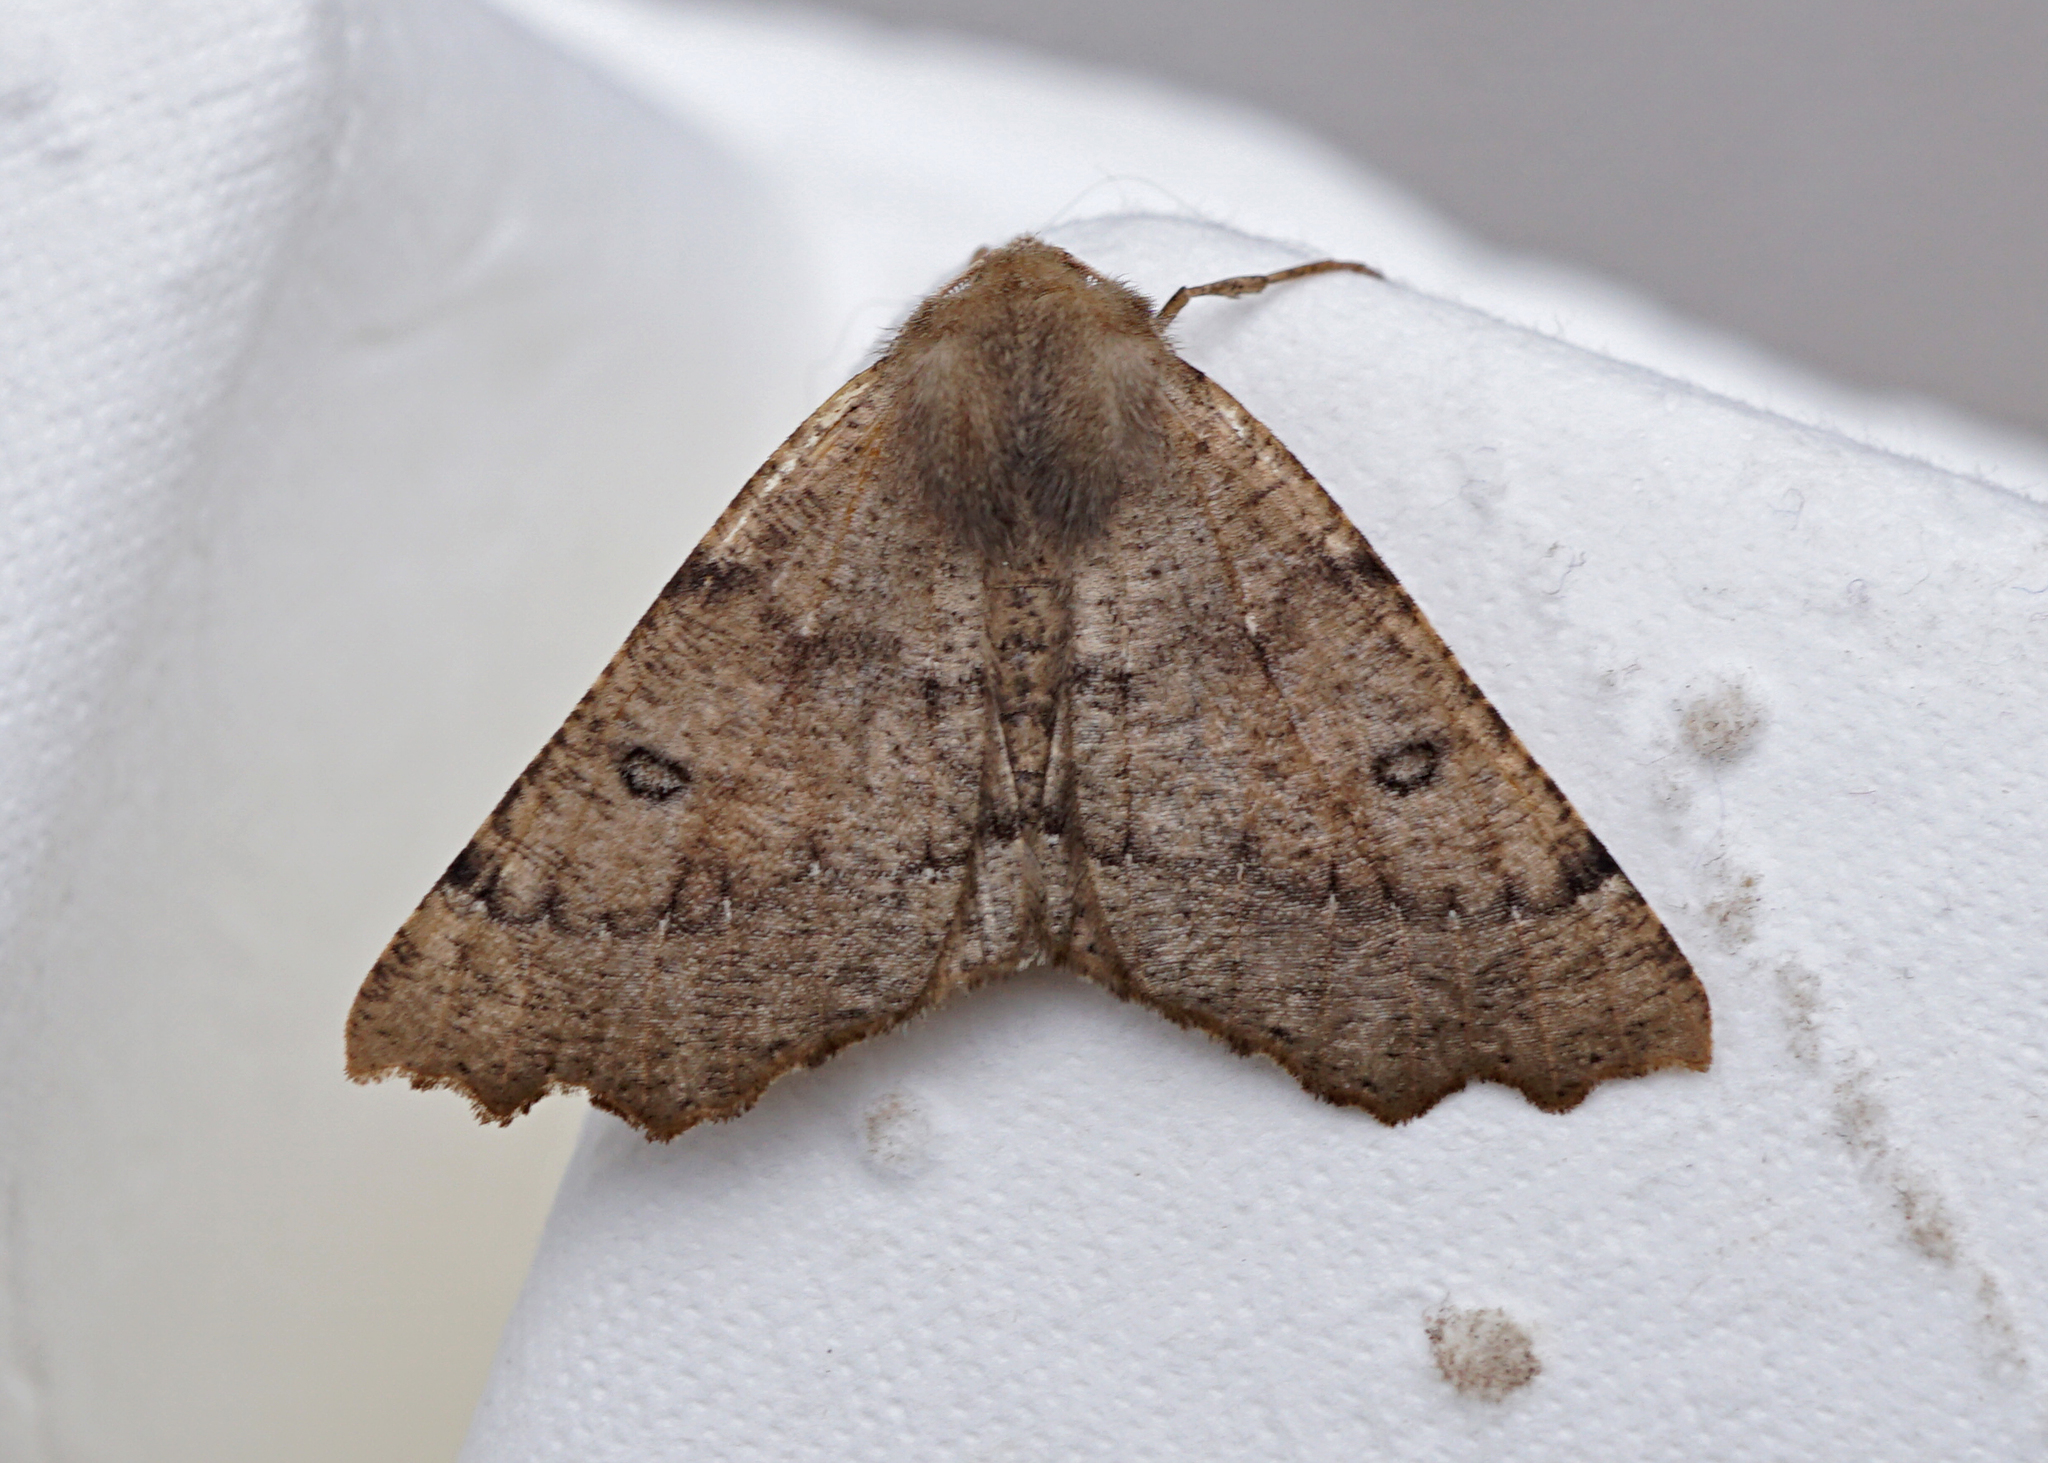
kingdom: Animalia
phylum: Arthropoda
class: Insecta
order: Lepidoptera
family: Geometridae
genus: Odontopera
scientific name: Odontopera bidentata
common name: Scalloped hazel
